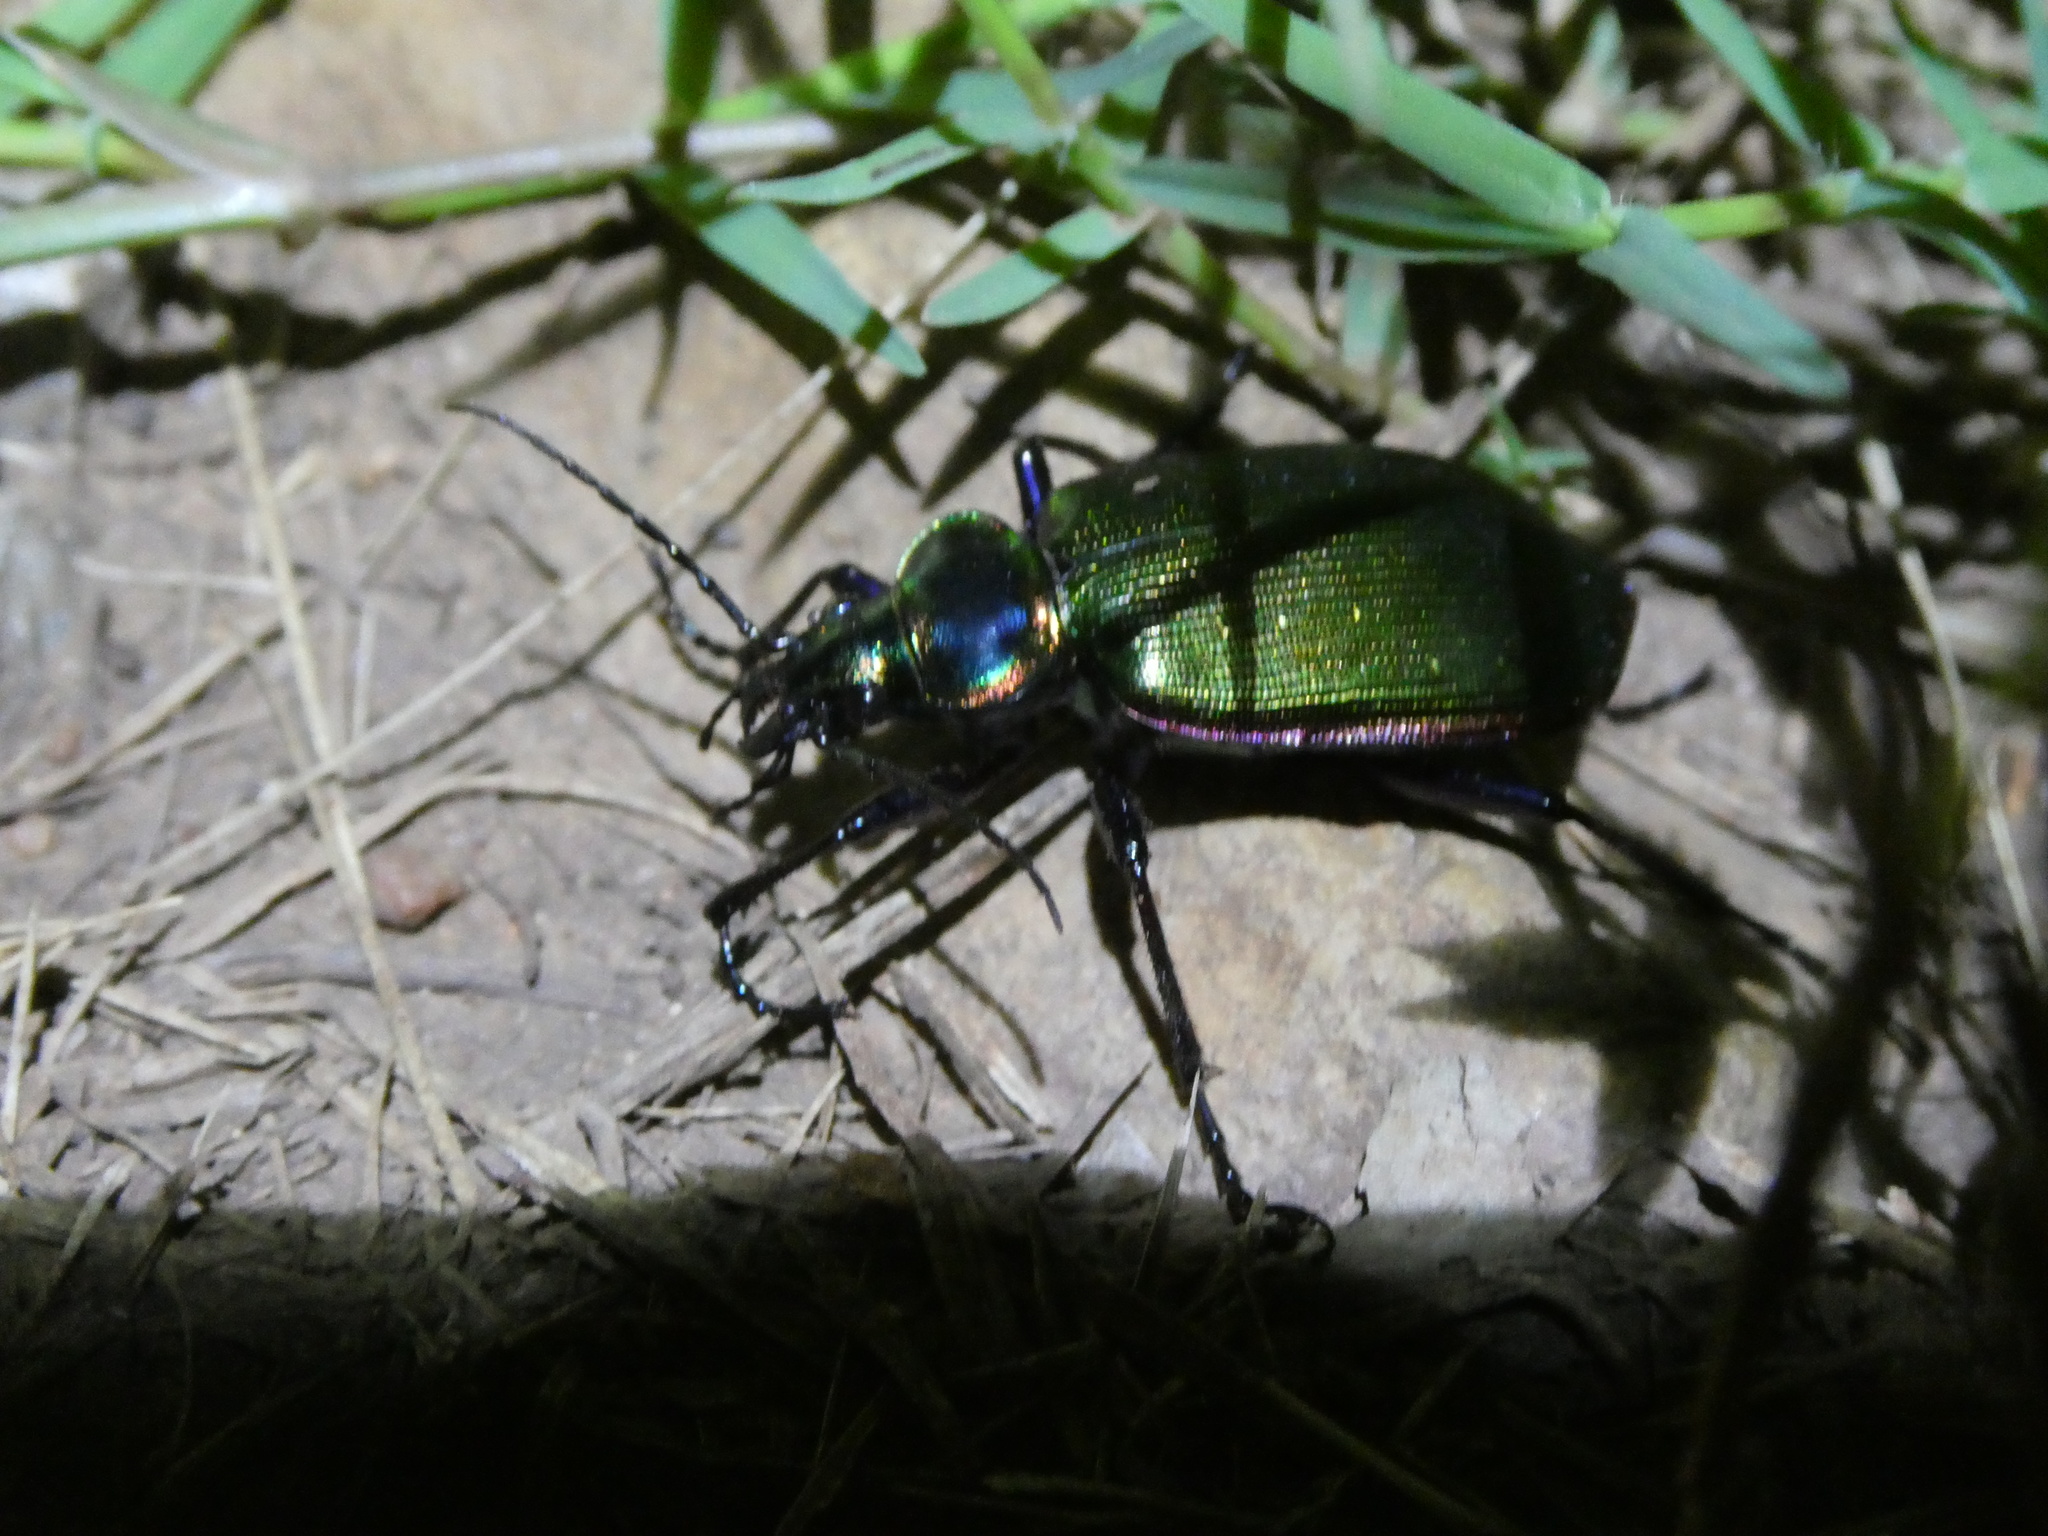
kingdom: Animalia
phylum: Arthropoda
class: Insecta
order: Coleoptera
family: Carabidae
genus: Calosoma
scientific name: Calosoma scrutator
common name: Fiery searcher beetle
